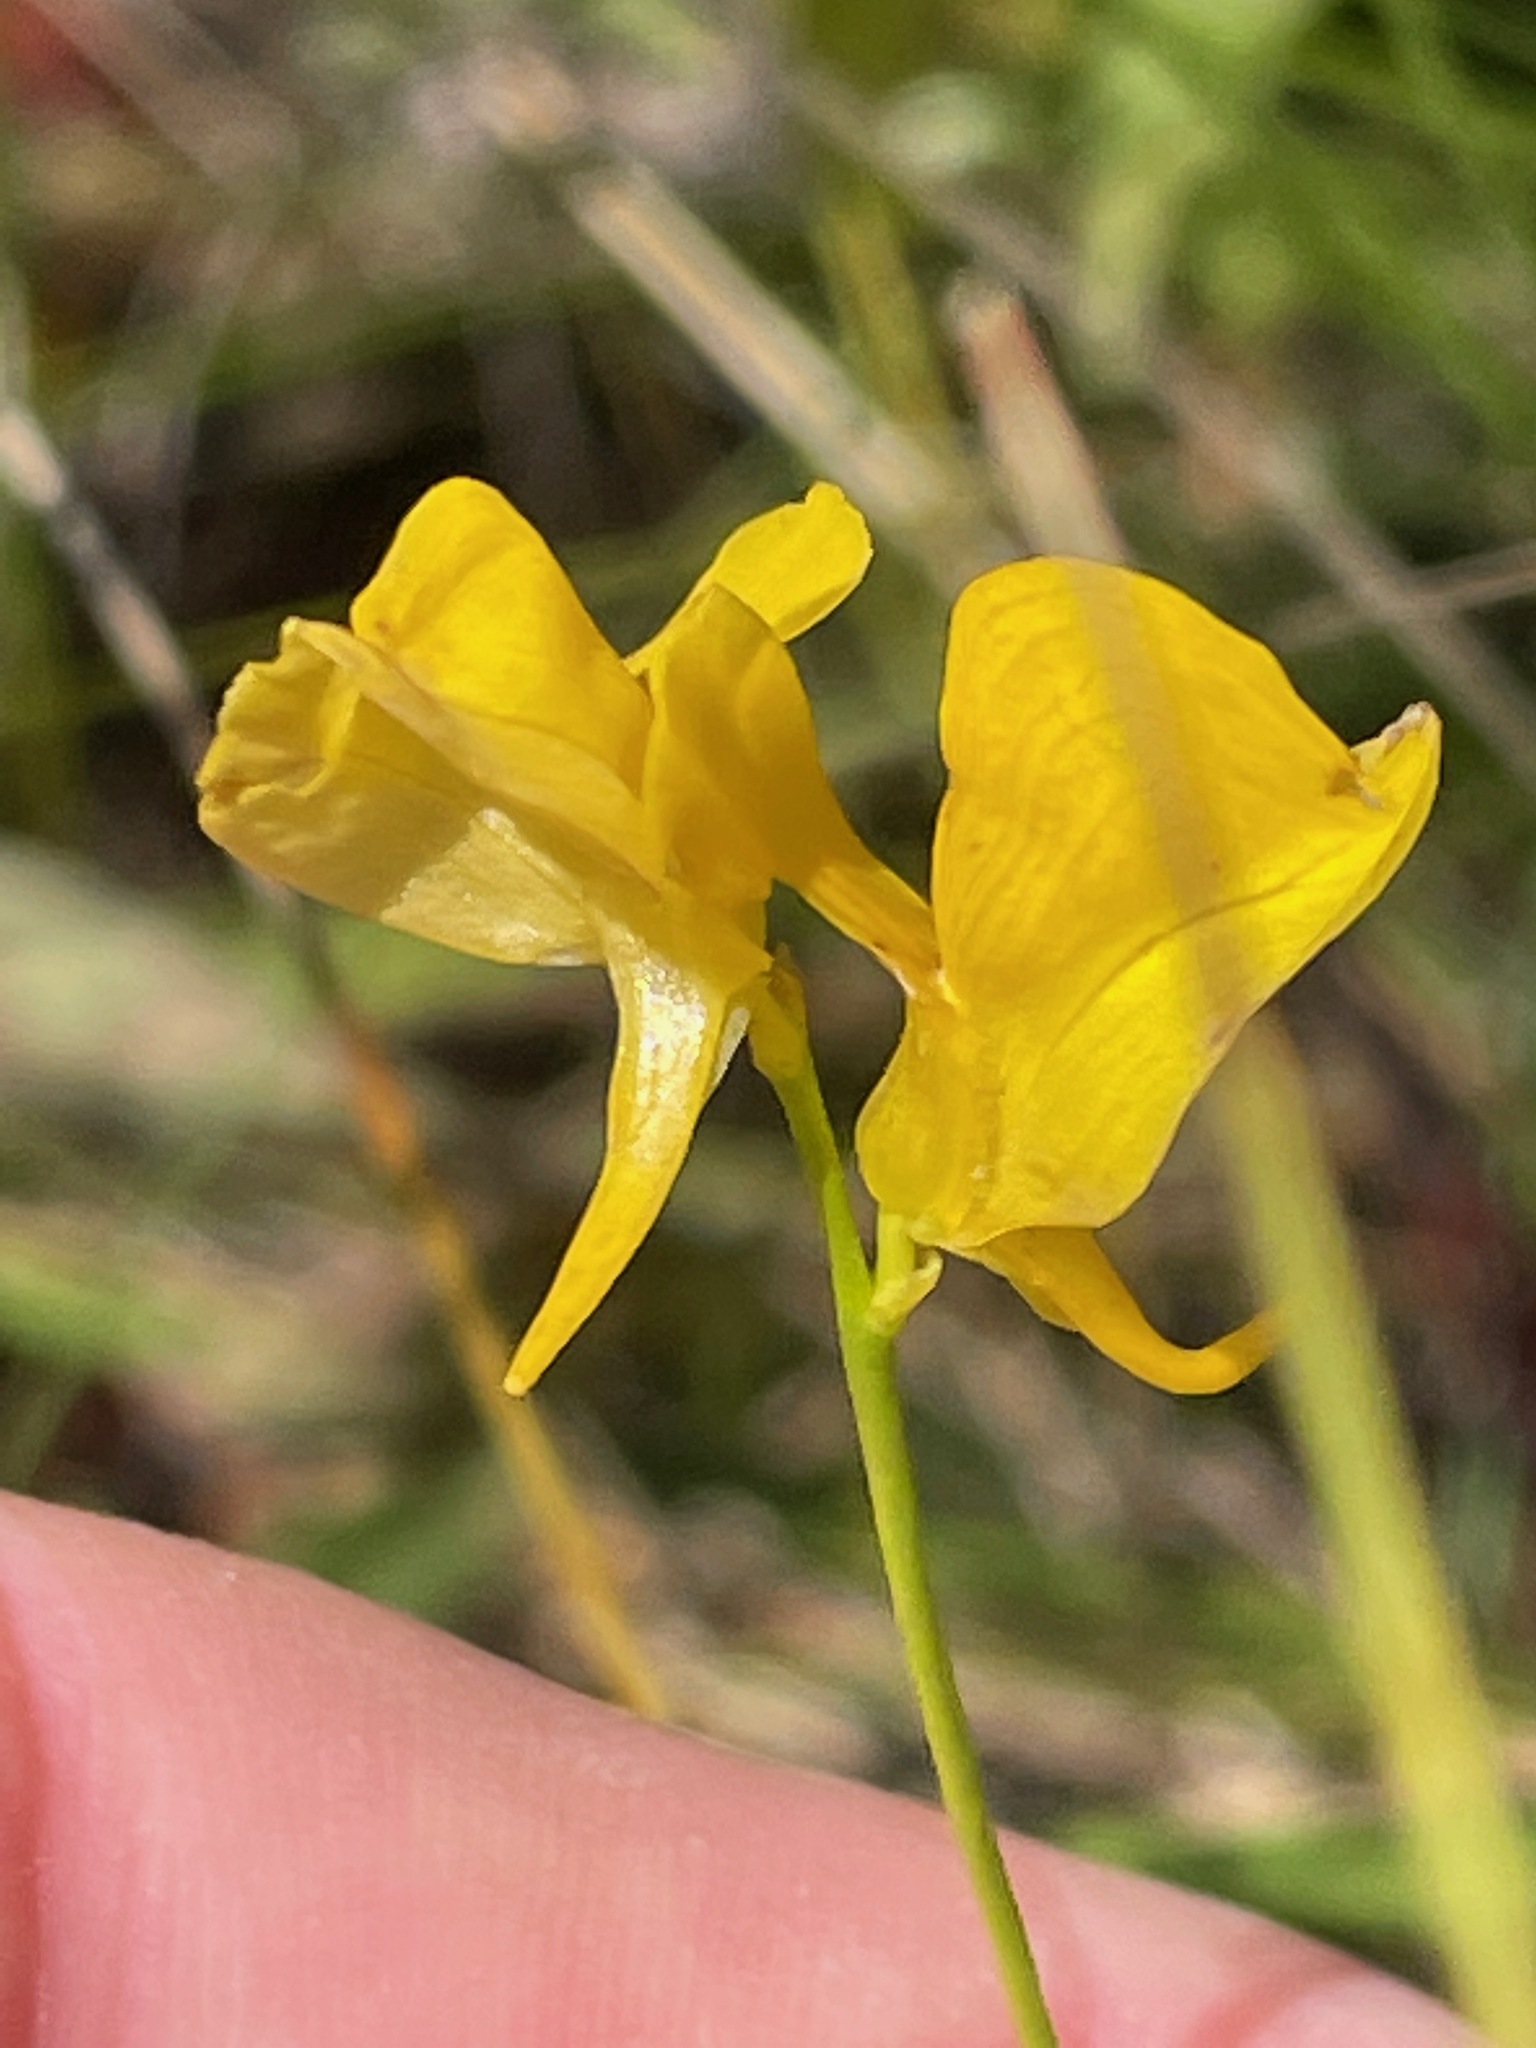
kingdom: Plantae
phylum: Tracheophyta
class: Magnoliopsida
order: Lamiales
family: Lentibulariaceae
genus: Utricularia
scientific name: Utricularia cornuta
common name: Horned bladderwort
